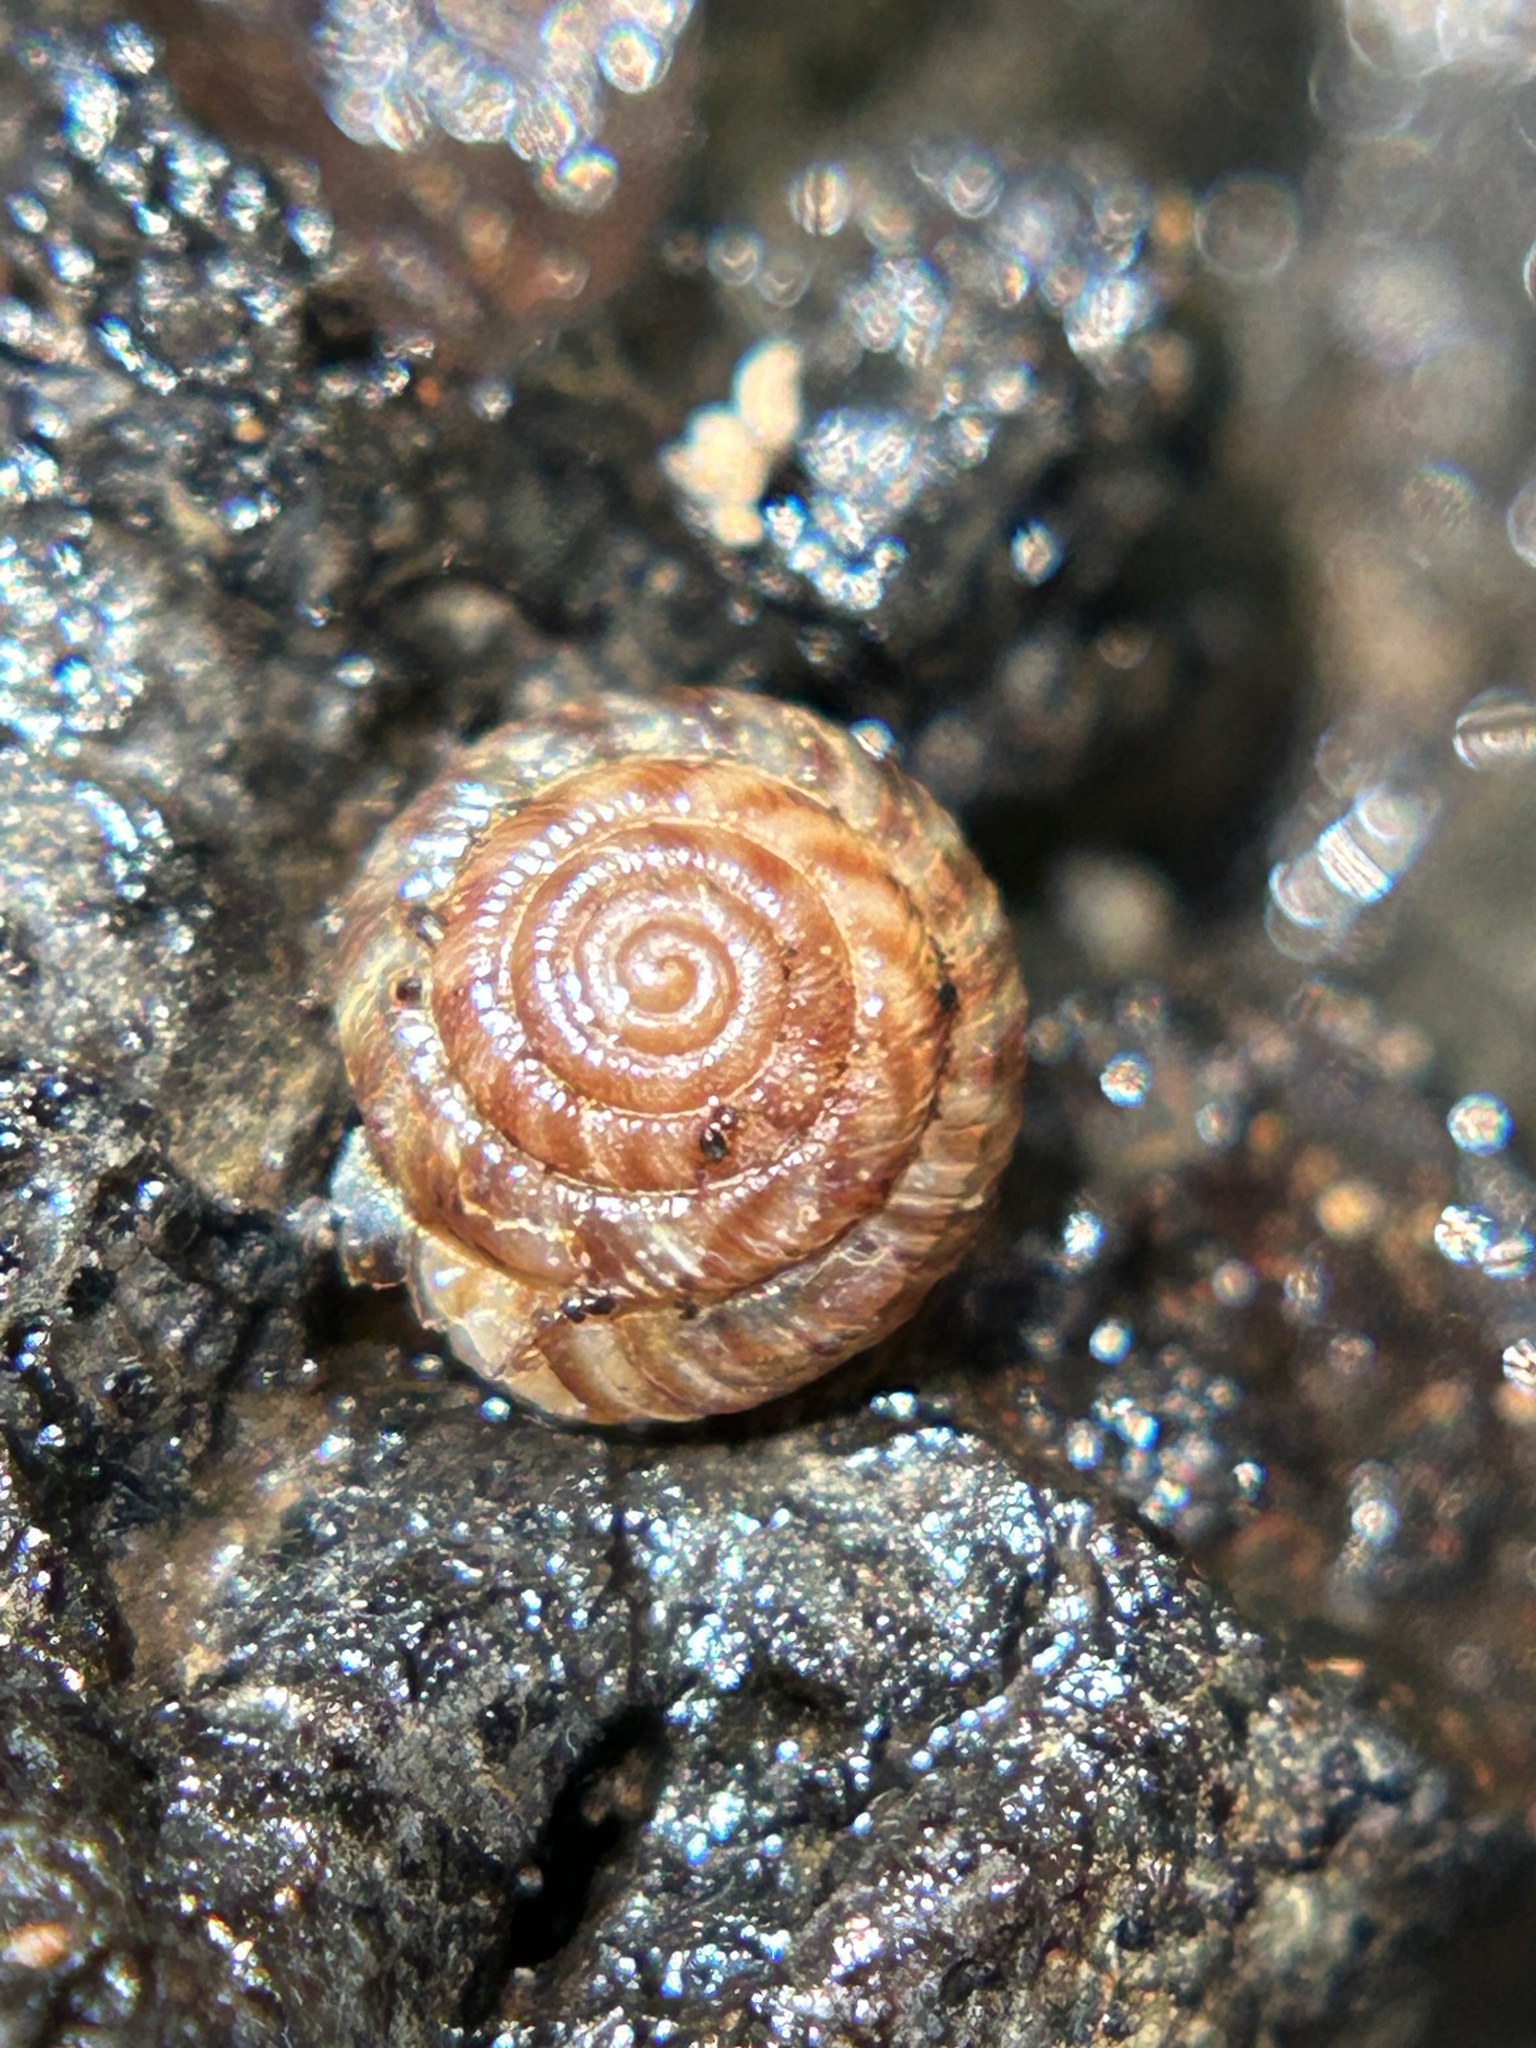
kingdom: Animalia
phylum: Mollusca
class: Gastropoda
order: Stylommatophora
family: Discidae
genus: Discus
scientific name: Discus rotundatus
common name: Rounded snail
